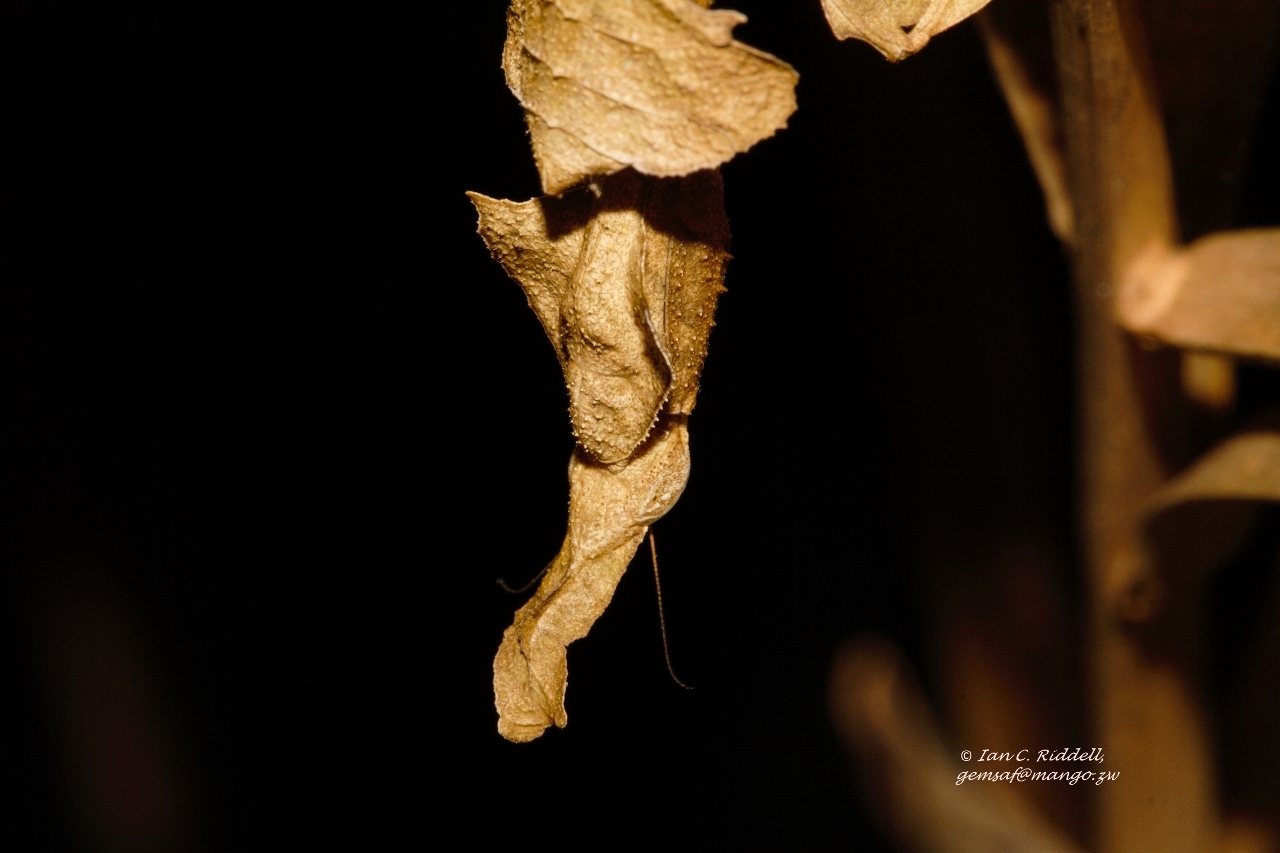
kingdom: Animalia
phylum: Arthropoda
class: Insecta
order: Mantodea
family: Hymenopodidae
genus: Phyllocrania
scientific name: Phyllocrania paradoxa
